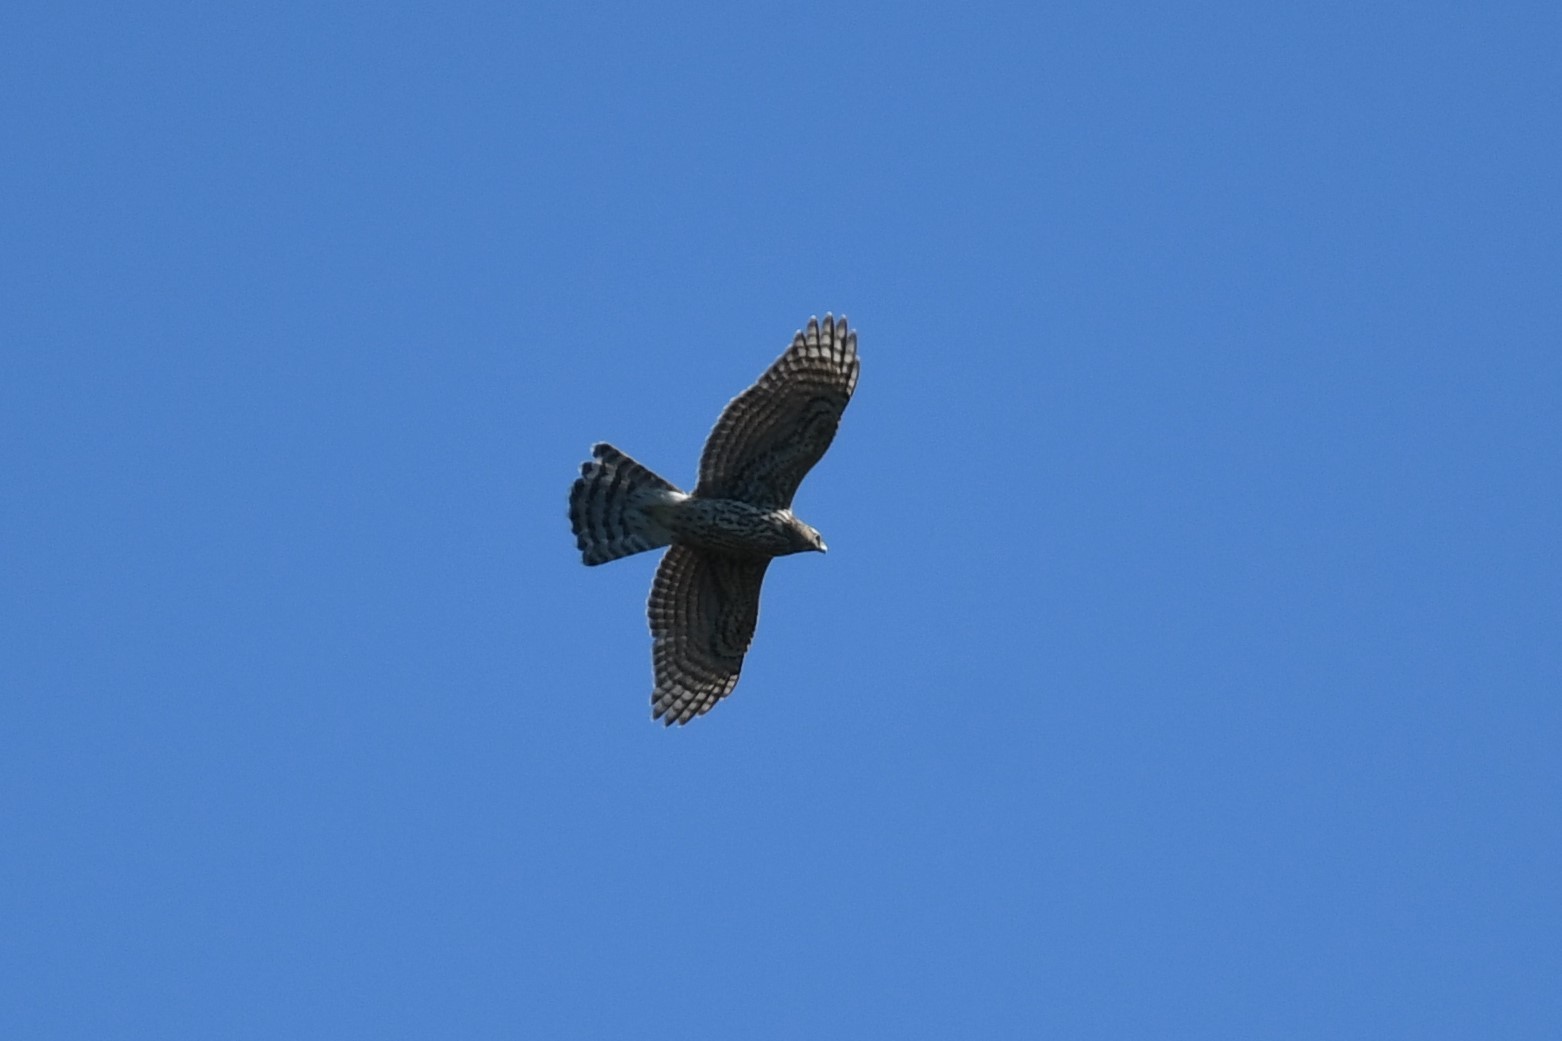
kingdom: Animalia
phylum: Chordata
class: Aves
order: Accipitriformes
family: Accipitridae
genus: Accipiter
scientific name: Accipiter gentilis
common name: Northern goshawk
